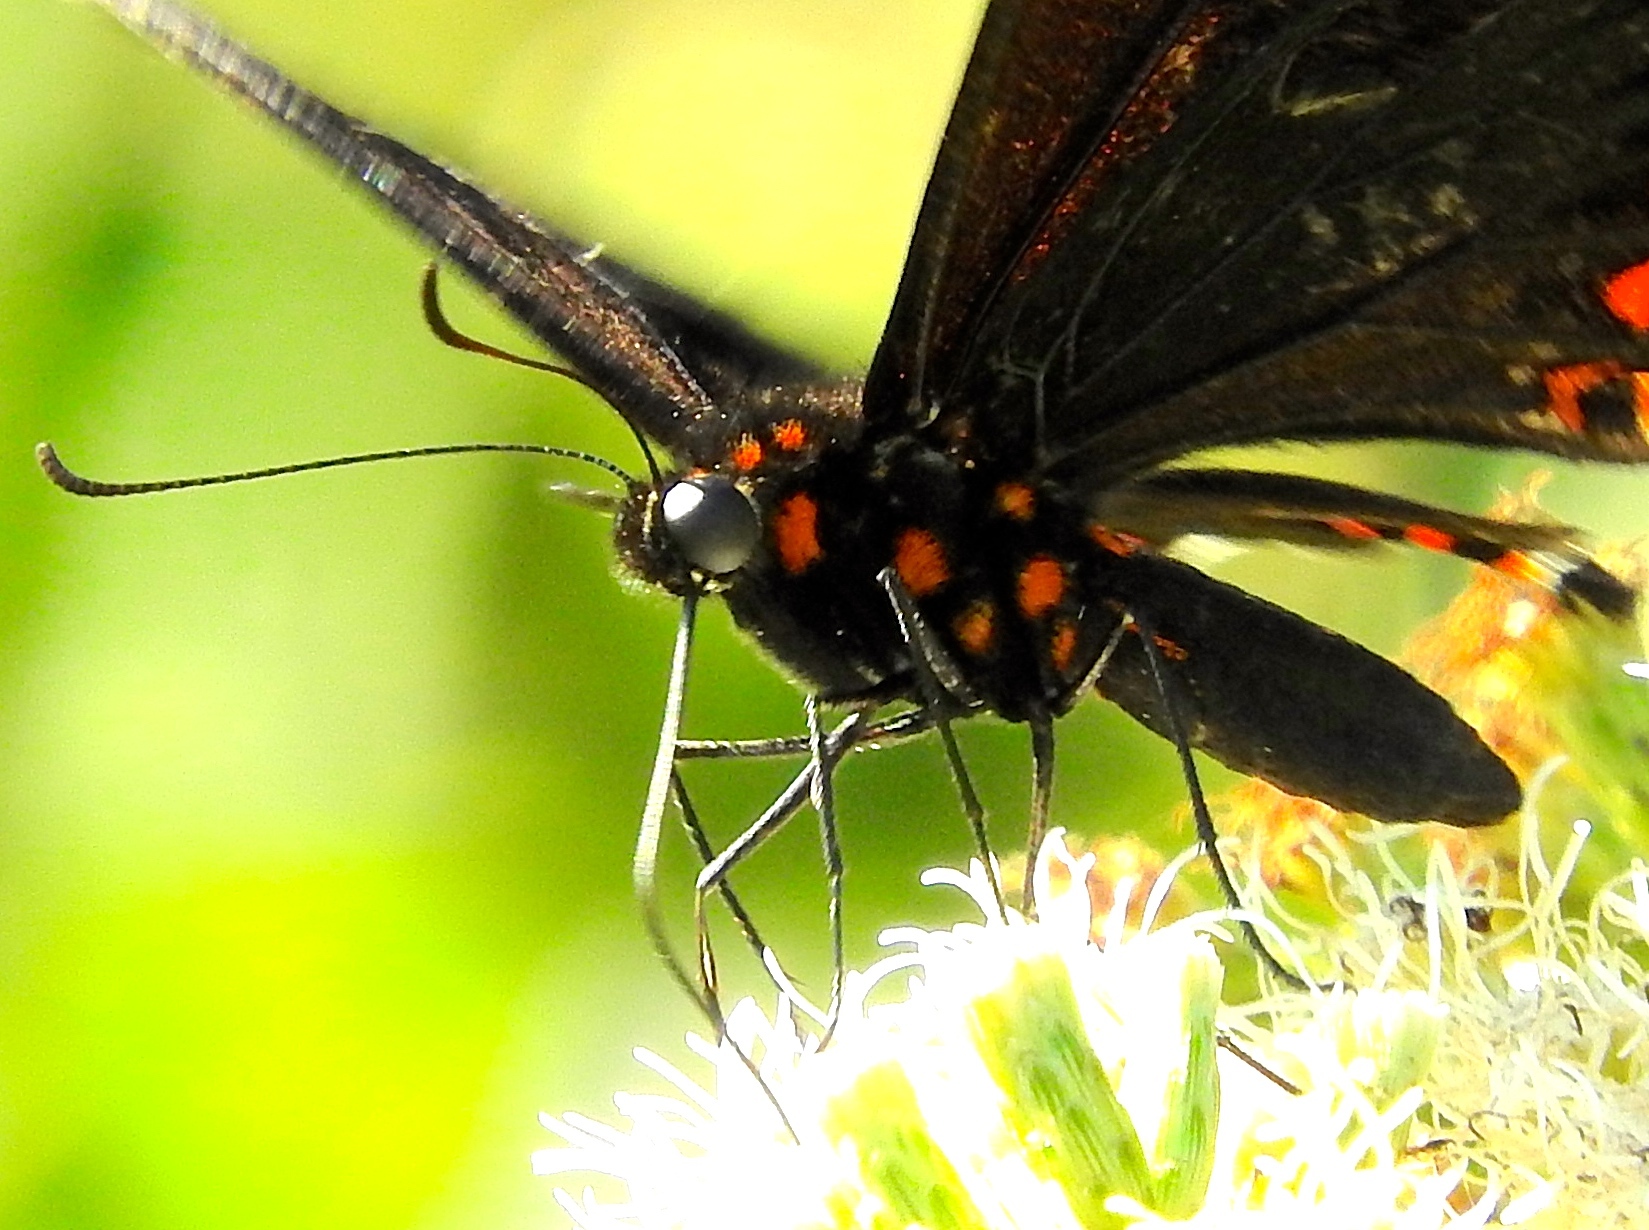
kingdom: Animalia
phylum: Arthropoda
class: Insecta
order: Lepidoptera
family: Papilionidae
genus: Heraclides
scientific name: Heraclides rogeri
